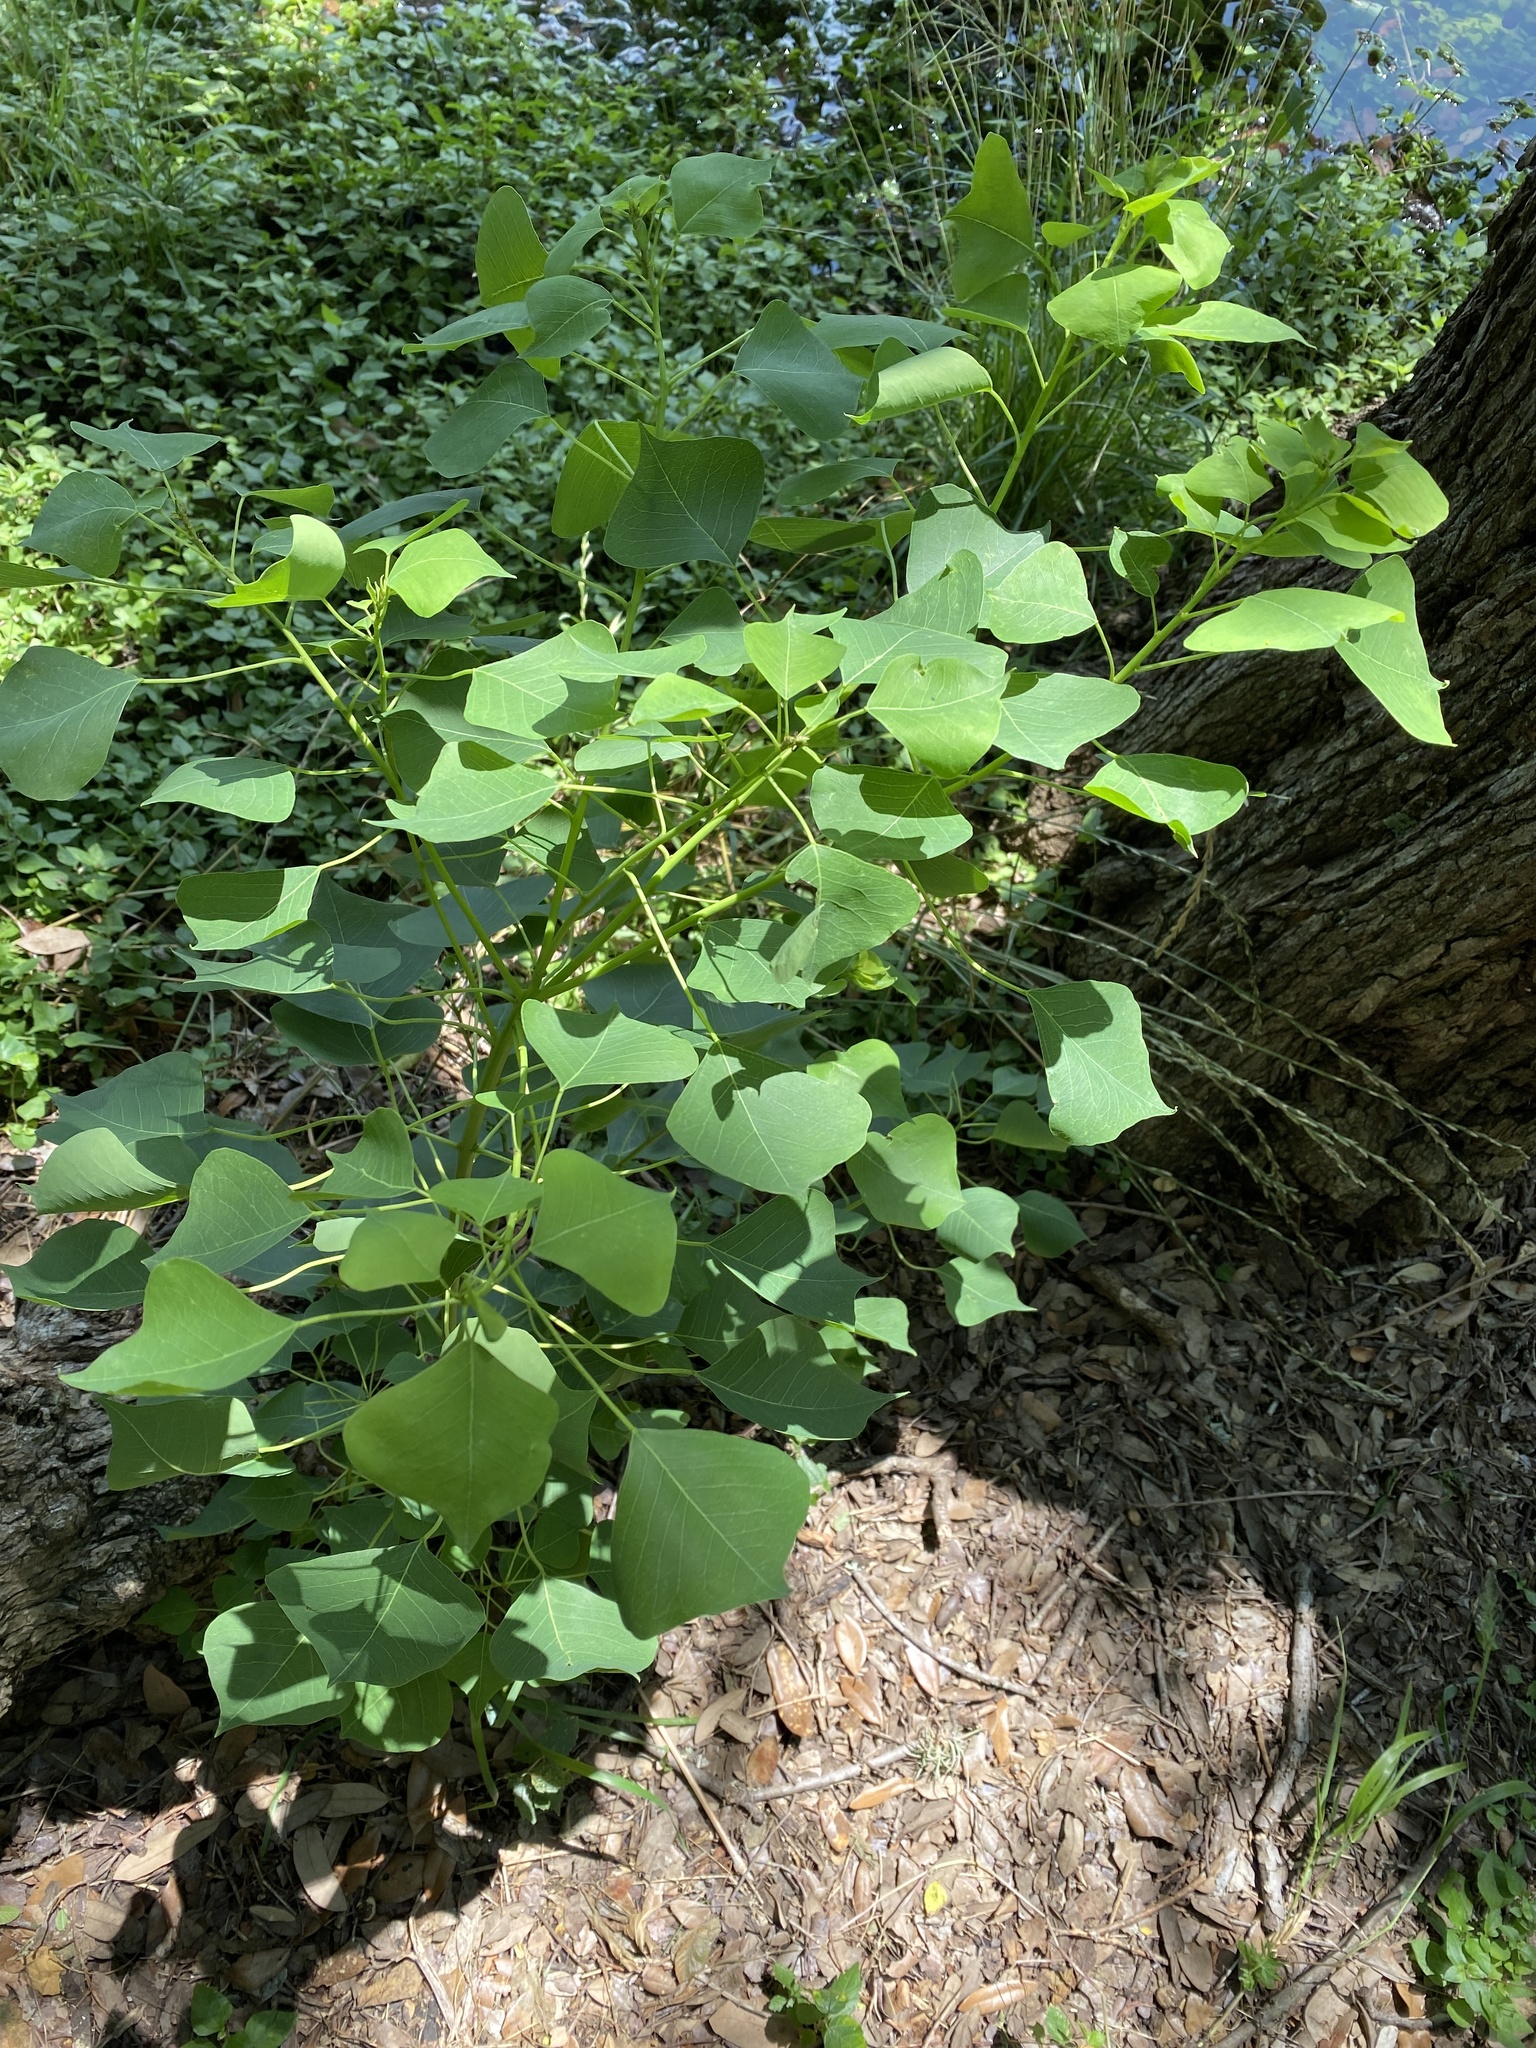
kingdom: Plantae
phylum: Tracheophyta
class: Magnoliopsida
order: Malpighiales
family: Euphorbiaceae
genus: Triadica
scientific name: Triadica sebifera
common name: Chinese tallow
